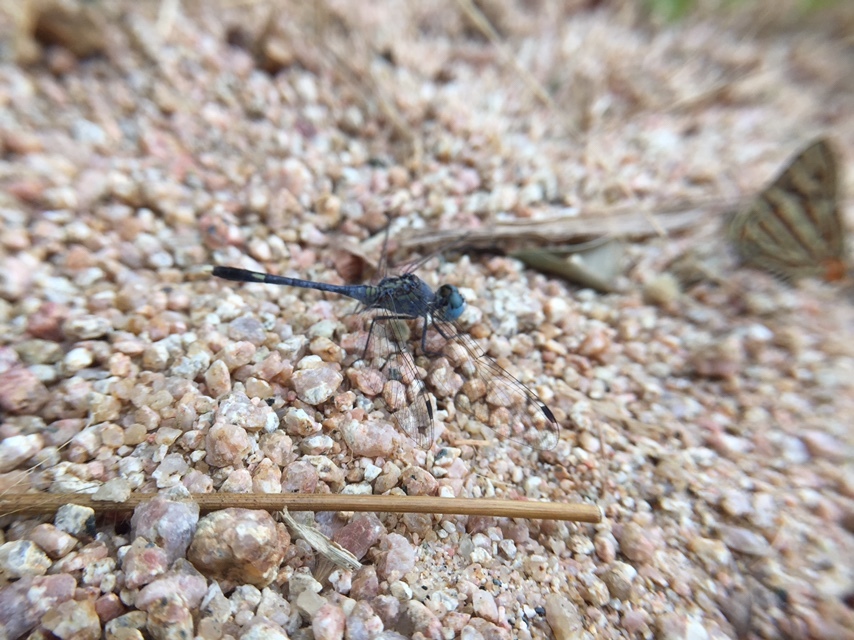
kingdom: Animalia
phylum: Arthropoda
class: Insecta
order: Odonata
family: Libellulidae
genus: Diplacodes
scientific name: Diplacodes trivialis
